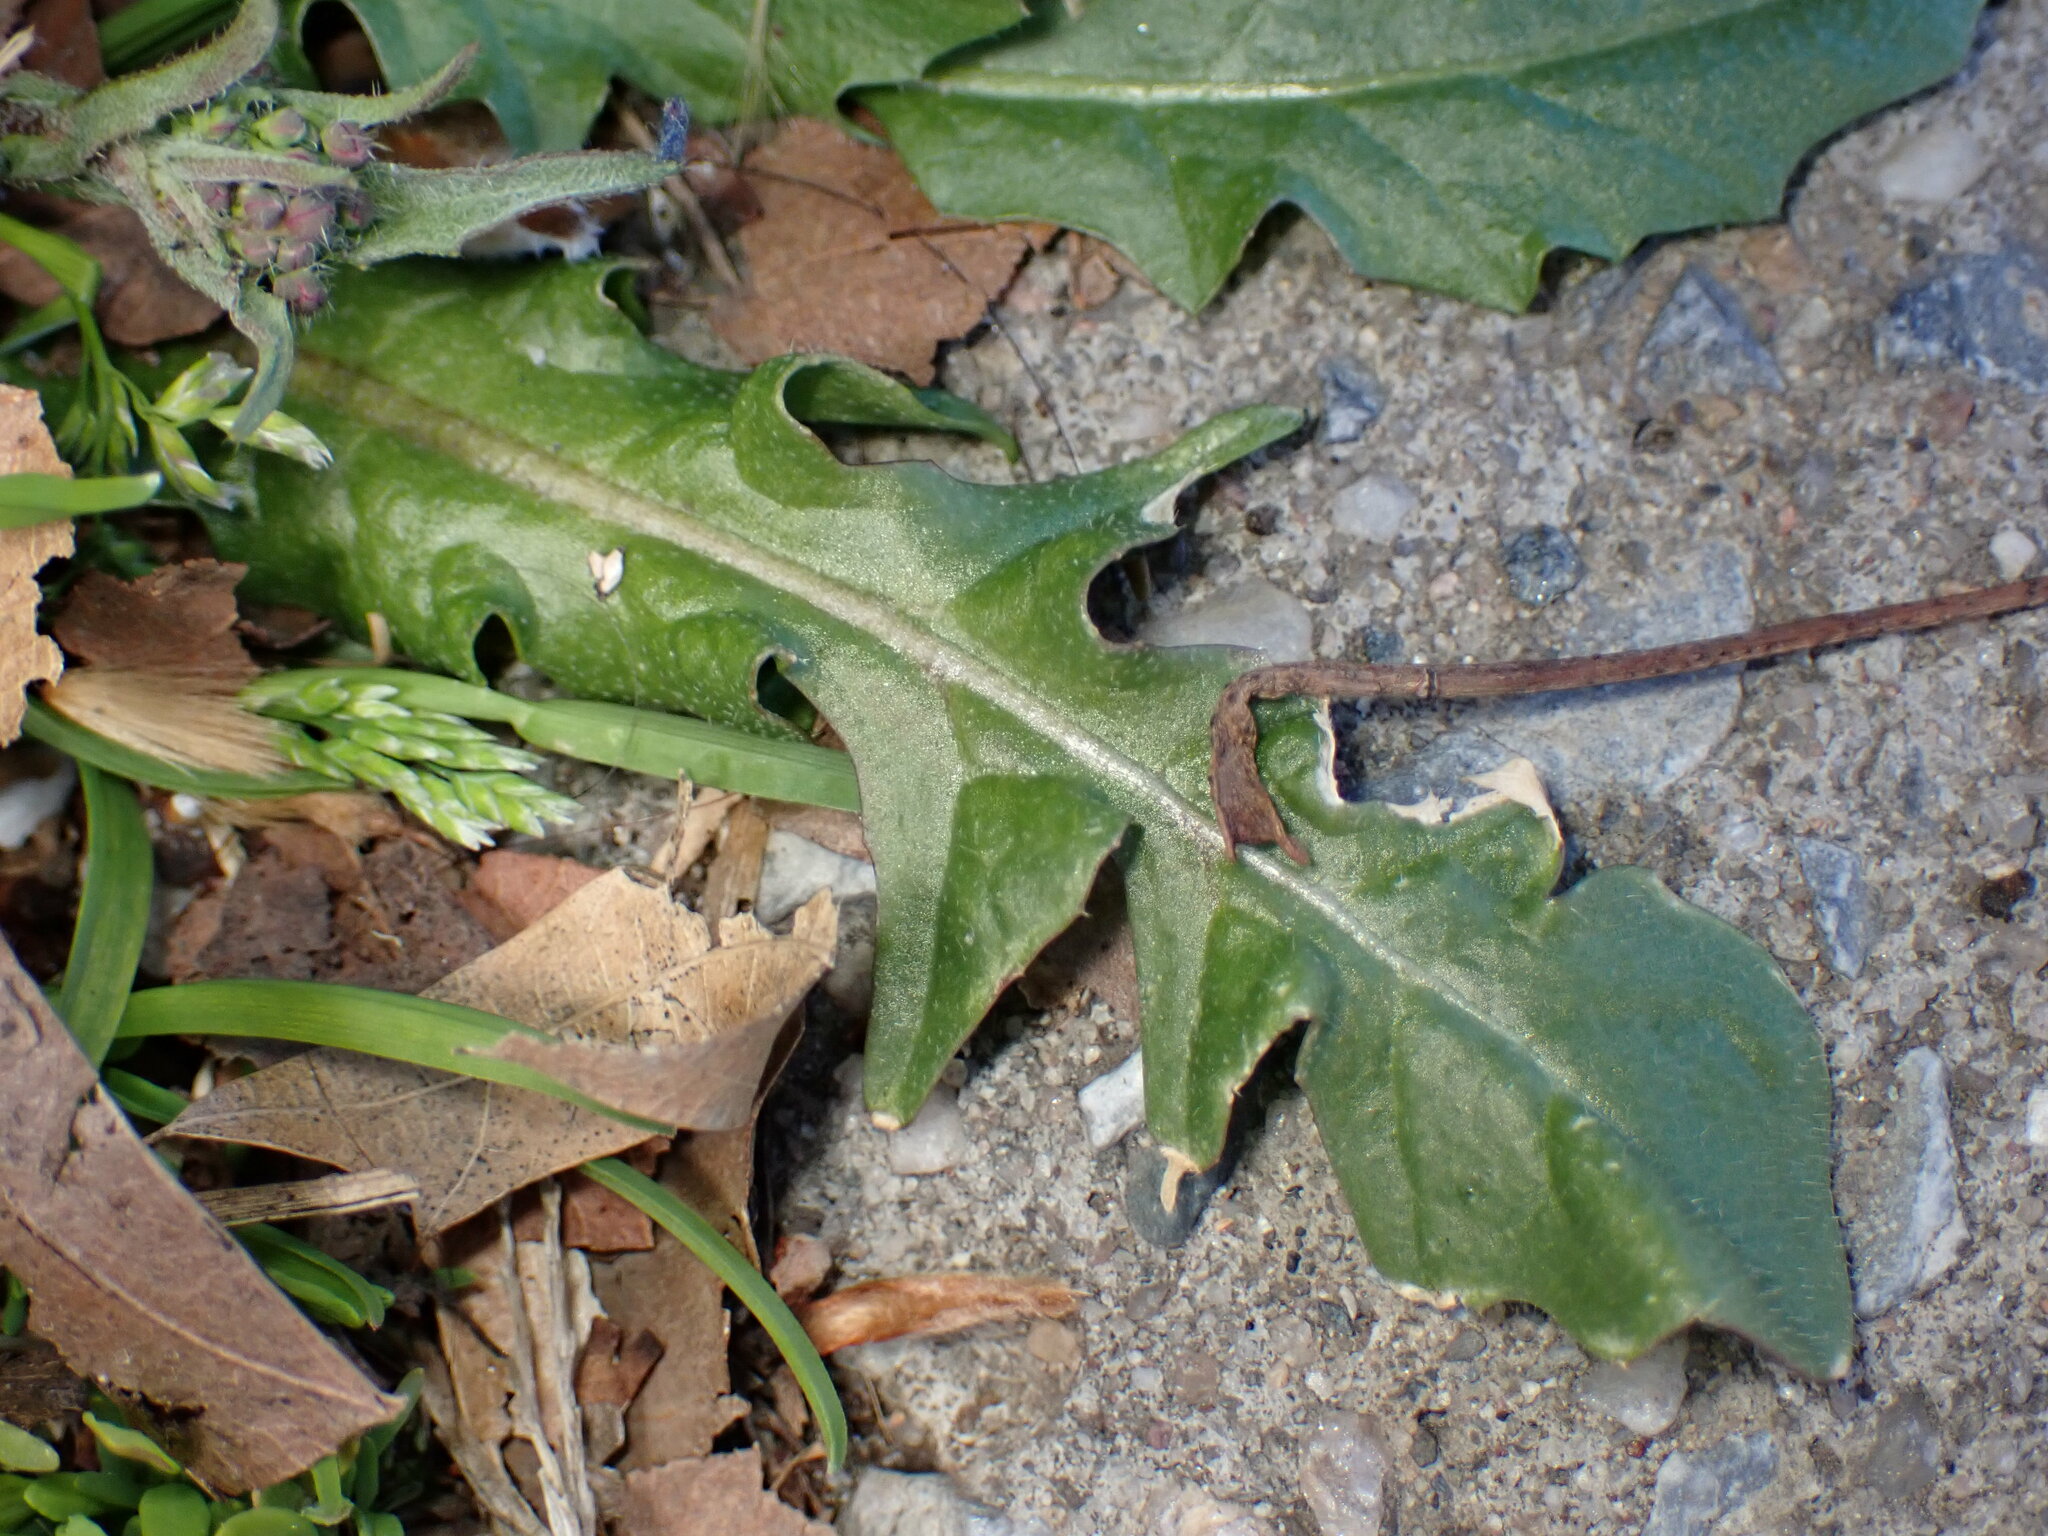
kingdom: Plantae
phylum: Tracheophyta
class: Magnoliopsida
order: Brassicales
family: Brassicaceae
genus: Capsella
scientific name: Capsella bursa-pastoris
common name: Shepherd's purse
